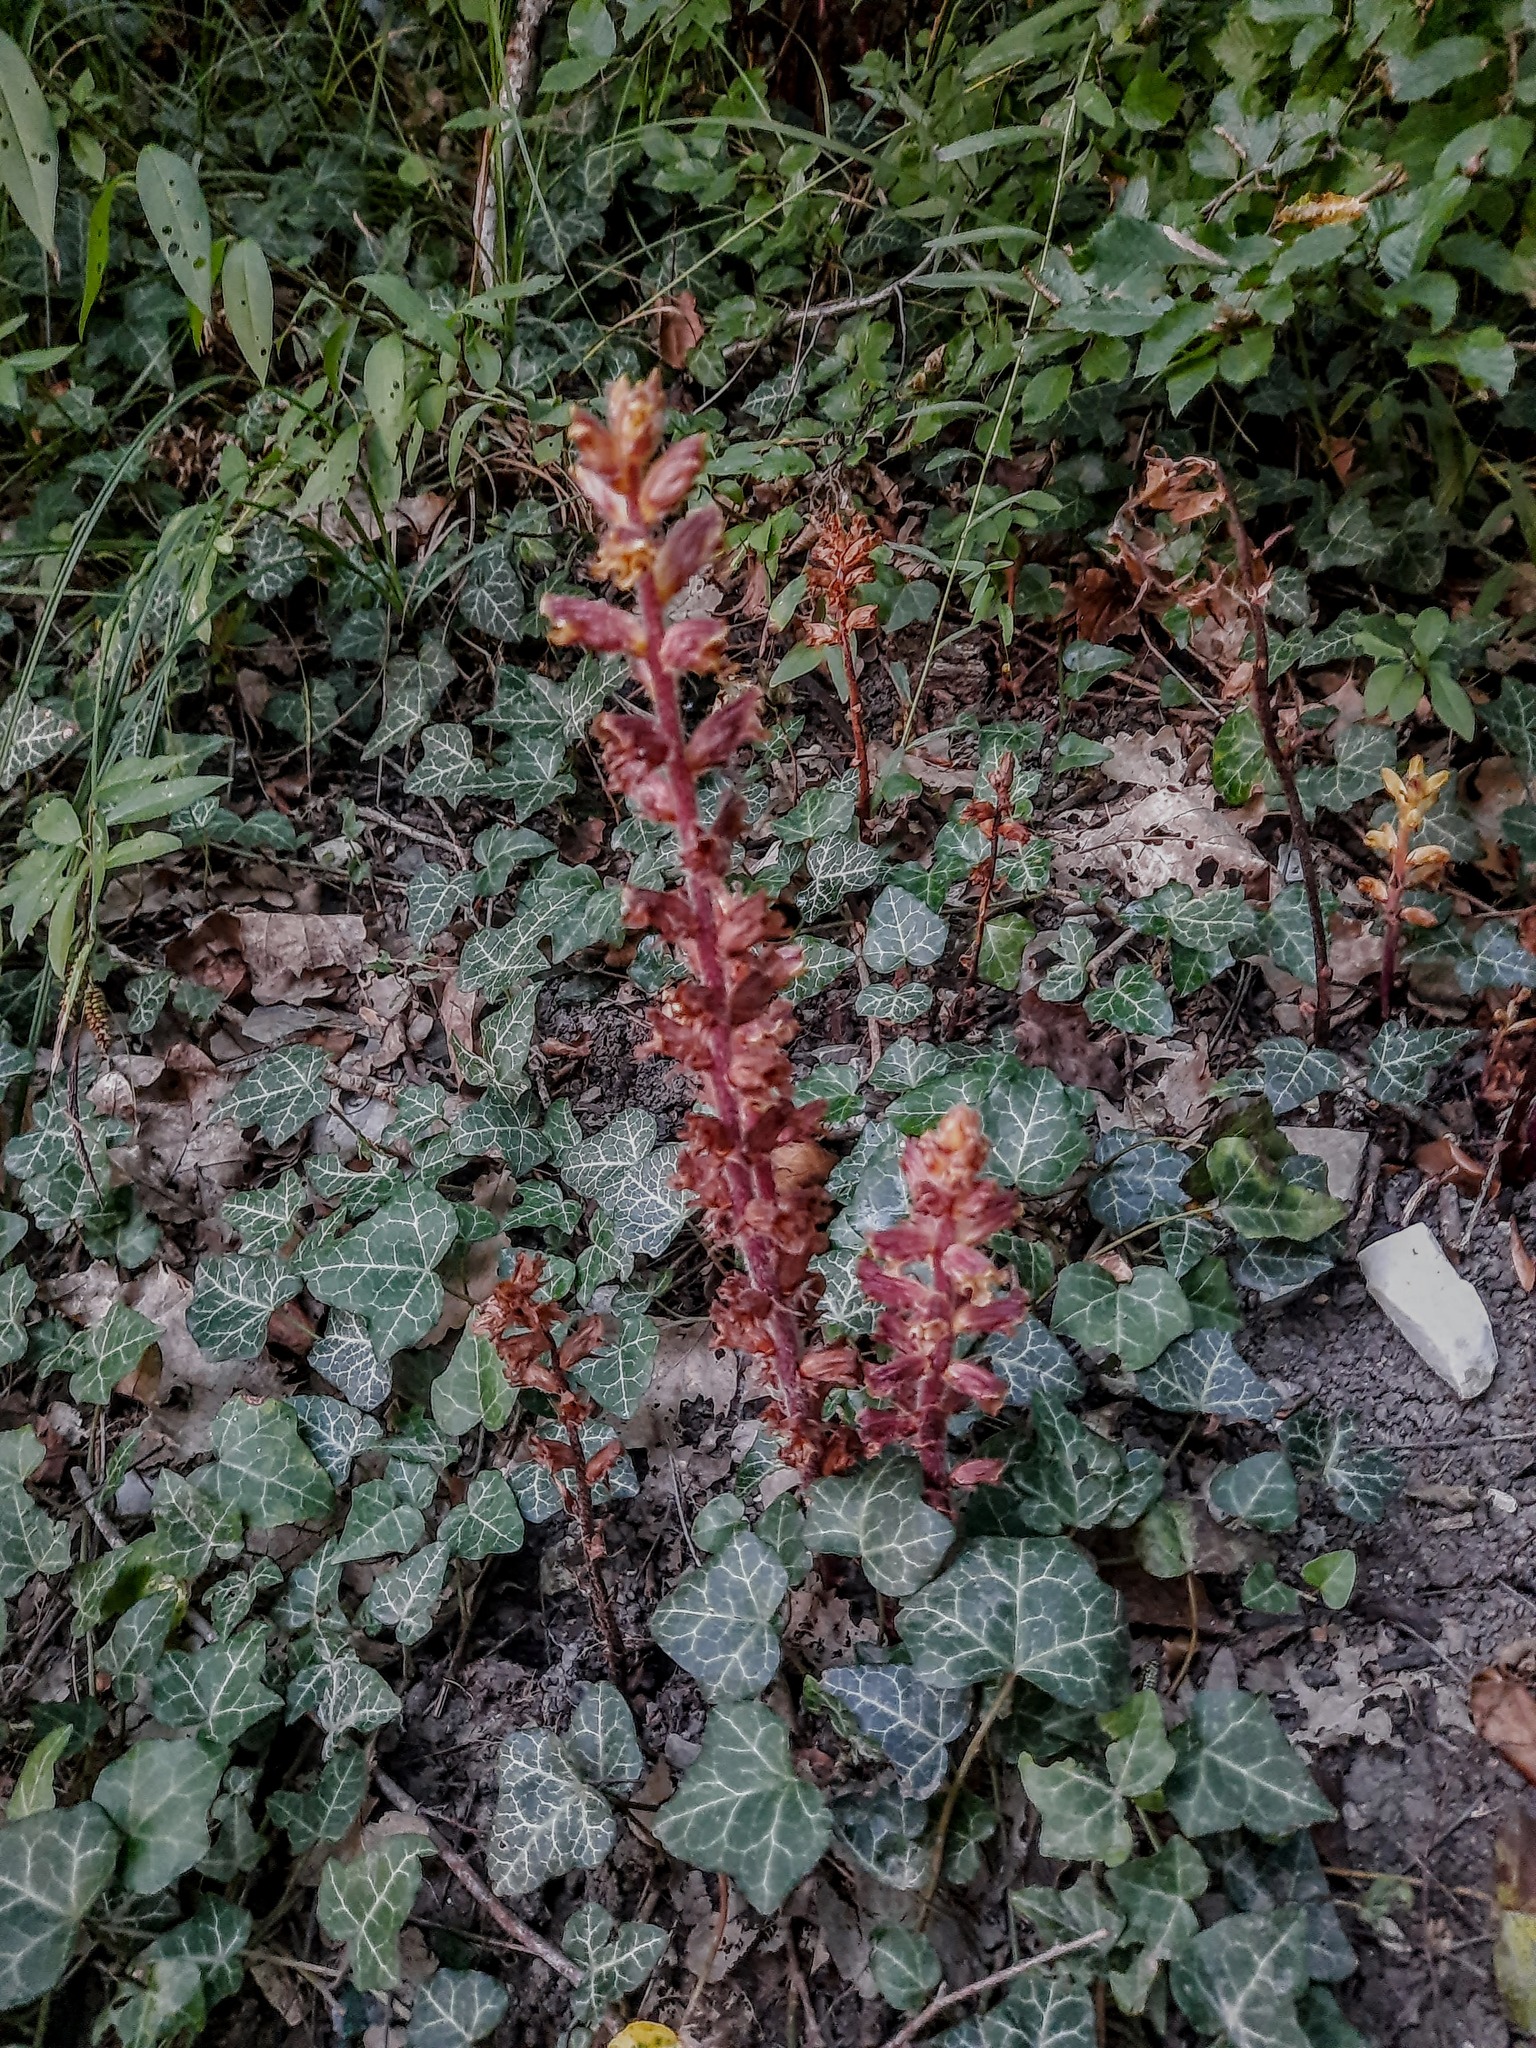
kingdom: Plantae
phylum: Tracheophyta
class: Magnoliopsida
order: Lamiales
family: Orobanchaceae
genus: Orobanche
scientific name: Orobanche laxissima
